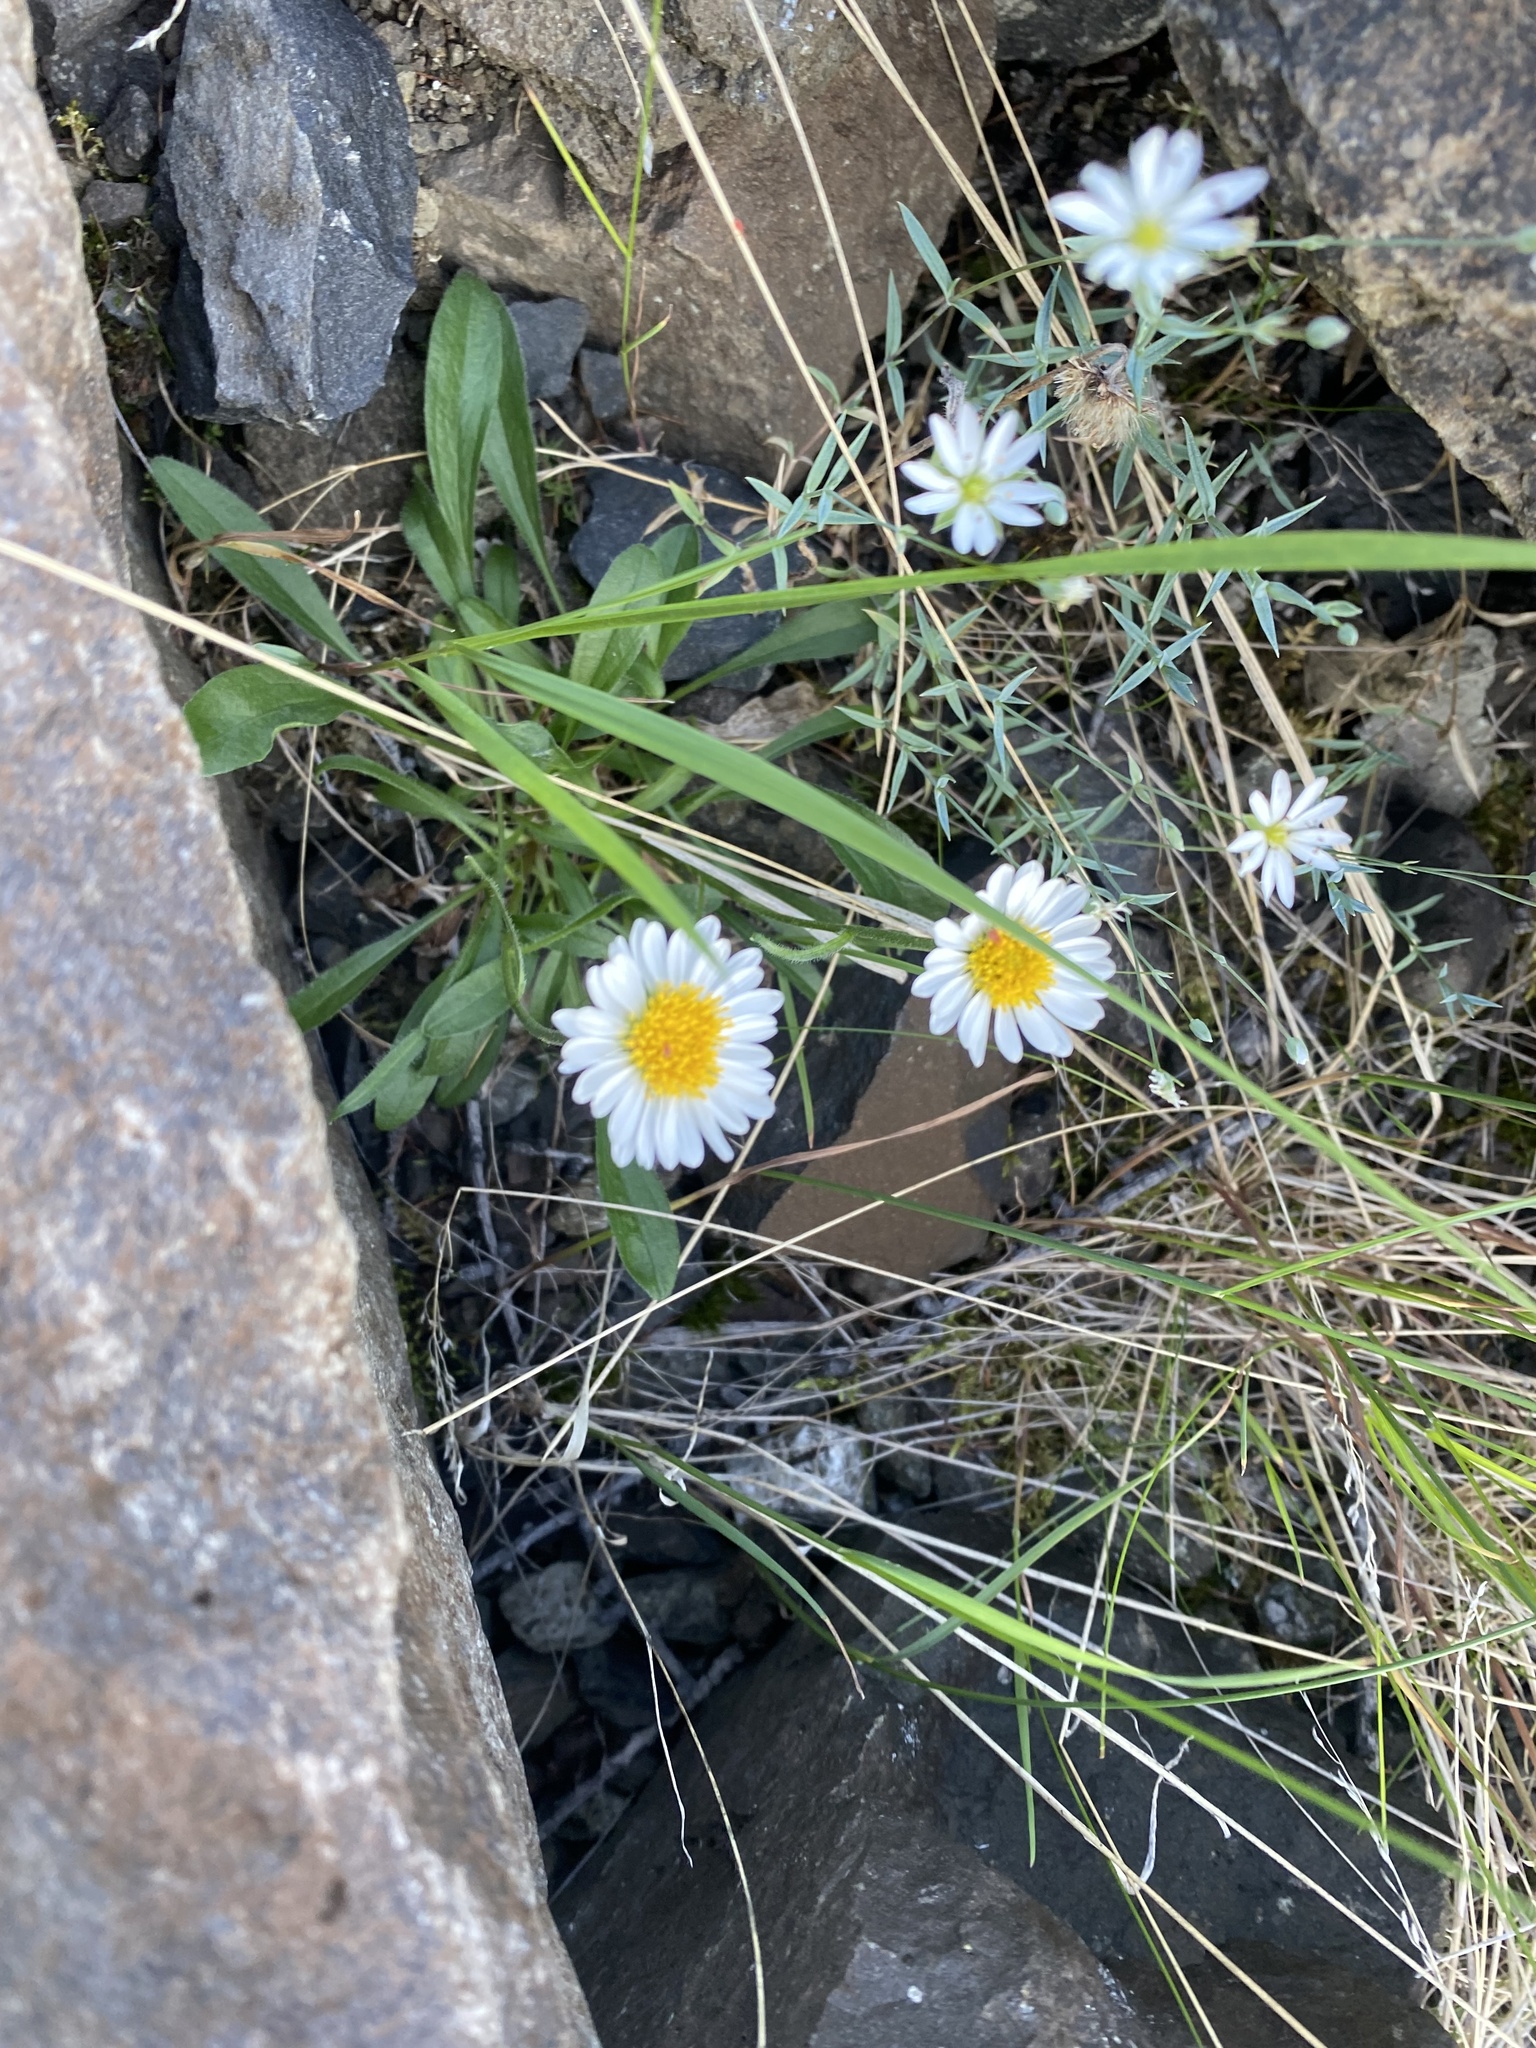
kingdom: Plantae
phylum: Tracheophyta
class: Magnoliopsida
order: Asterales
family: Asteraceae
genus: Aster
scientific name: Aster alpinus
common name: Alpine aster
